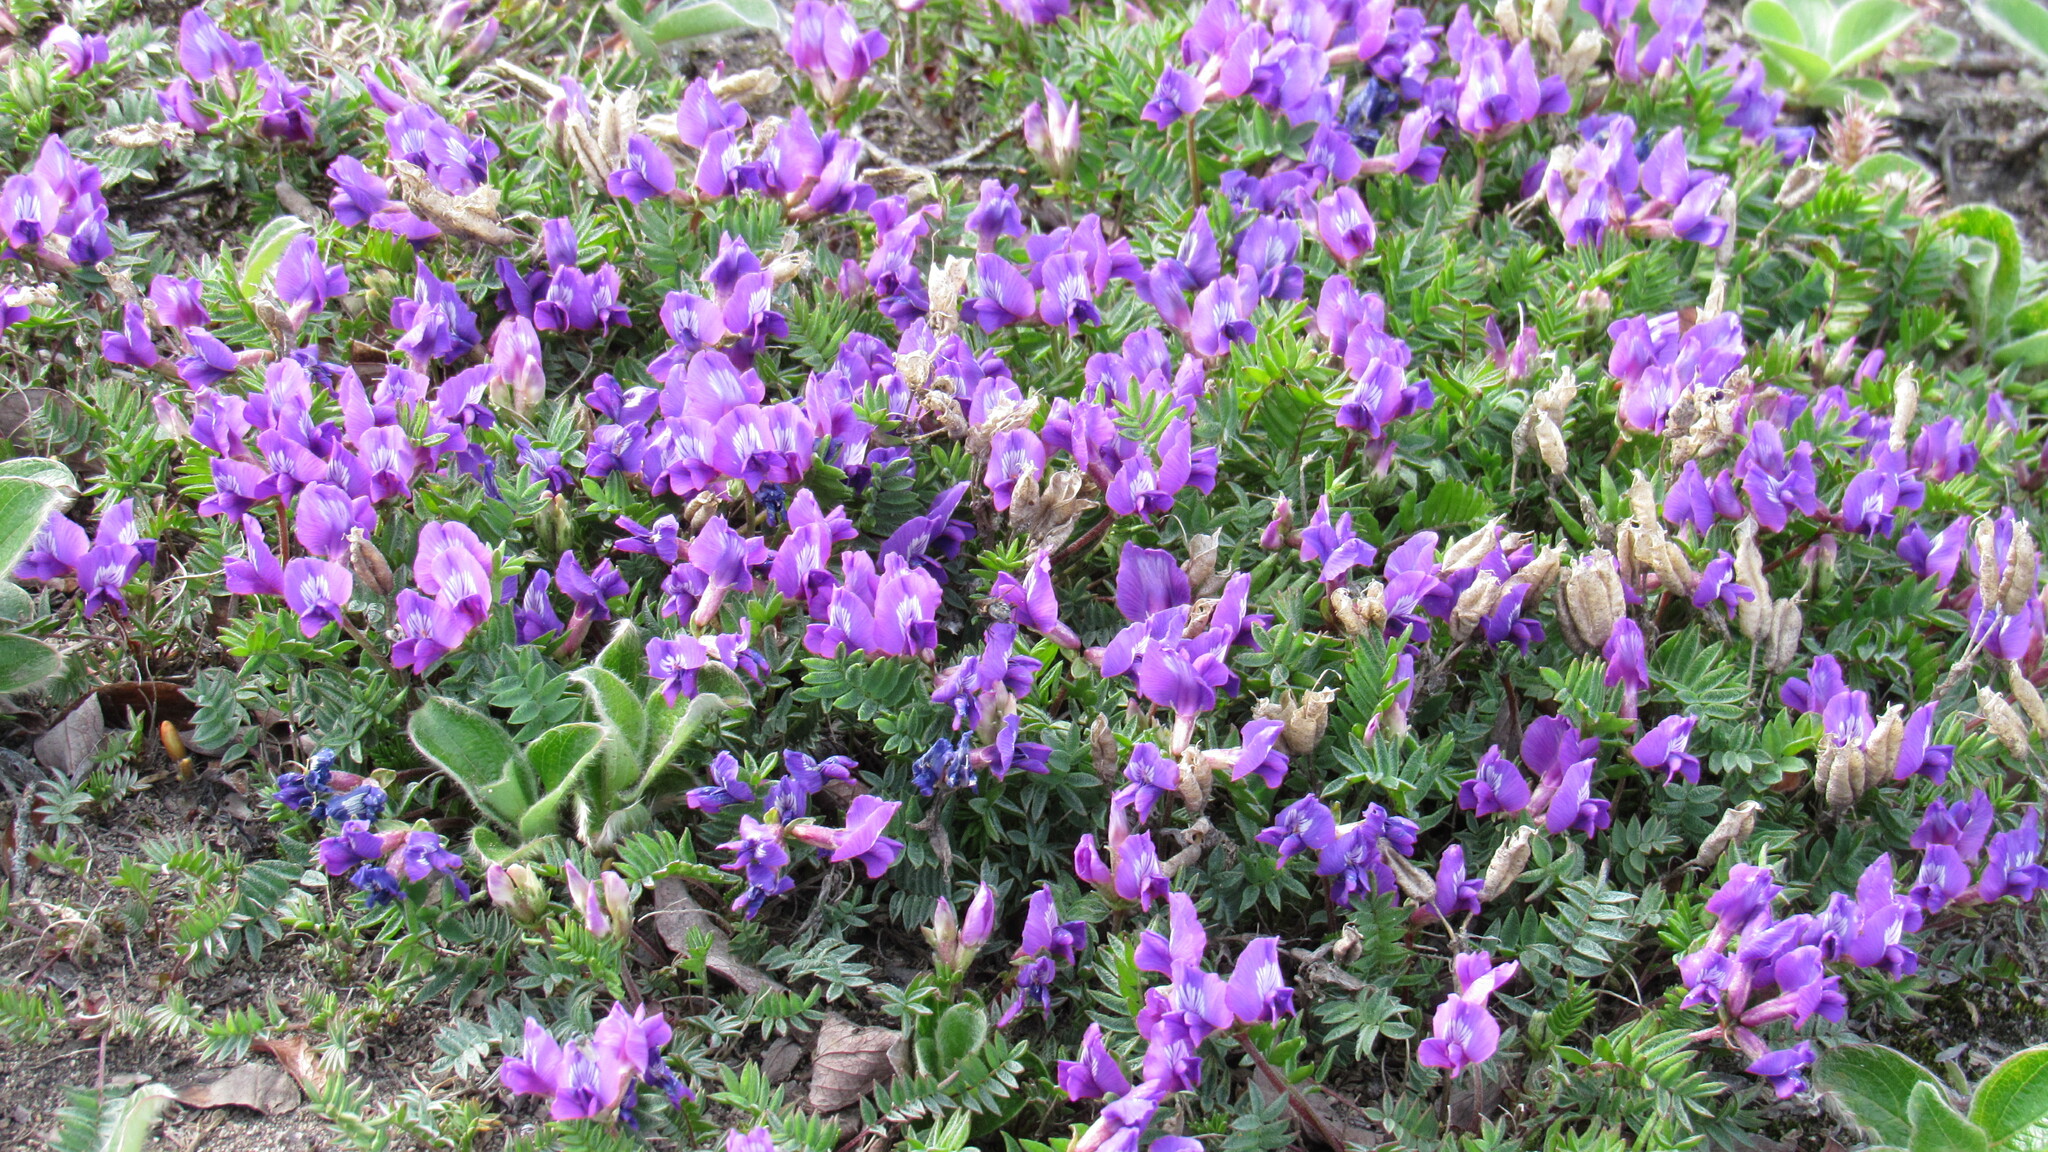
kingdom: Plantae
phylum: Tracheophyta
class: Magnoliopsida
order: Fabales
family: Fabaceae
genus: Oxytropis
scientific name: Oxytropis revoluta
